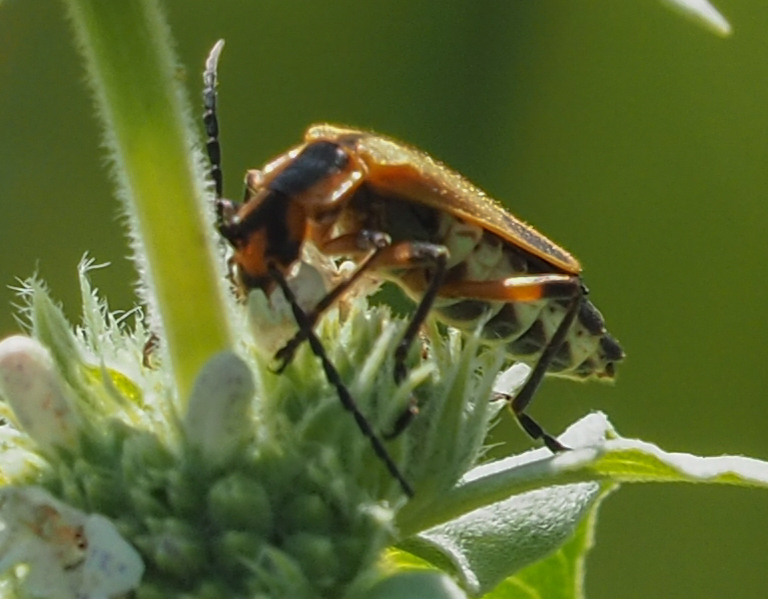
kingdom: Animalia
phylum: Arthropoda
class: Insecta
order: Coleoptera
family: Cantharidae
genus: Chauliognathus
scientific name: Chauliognathus marginatus
